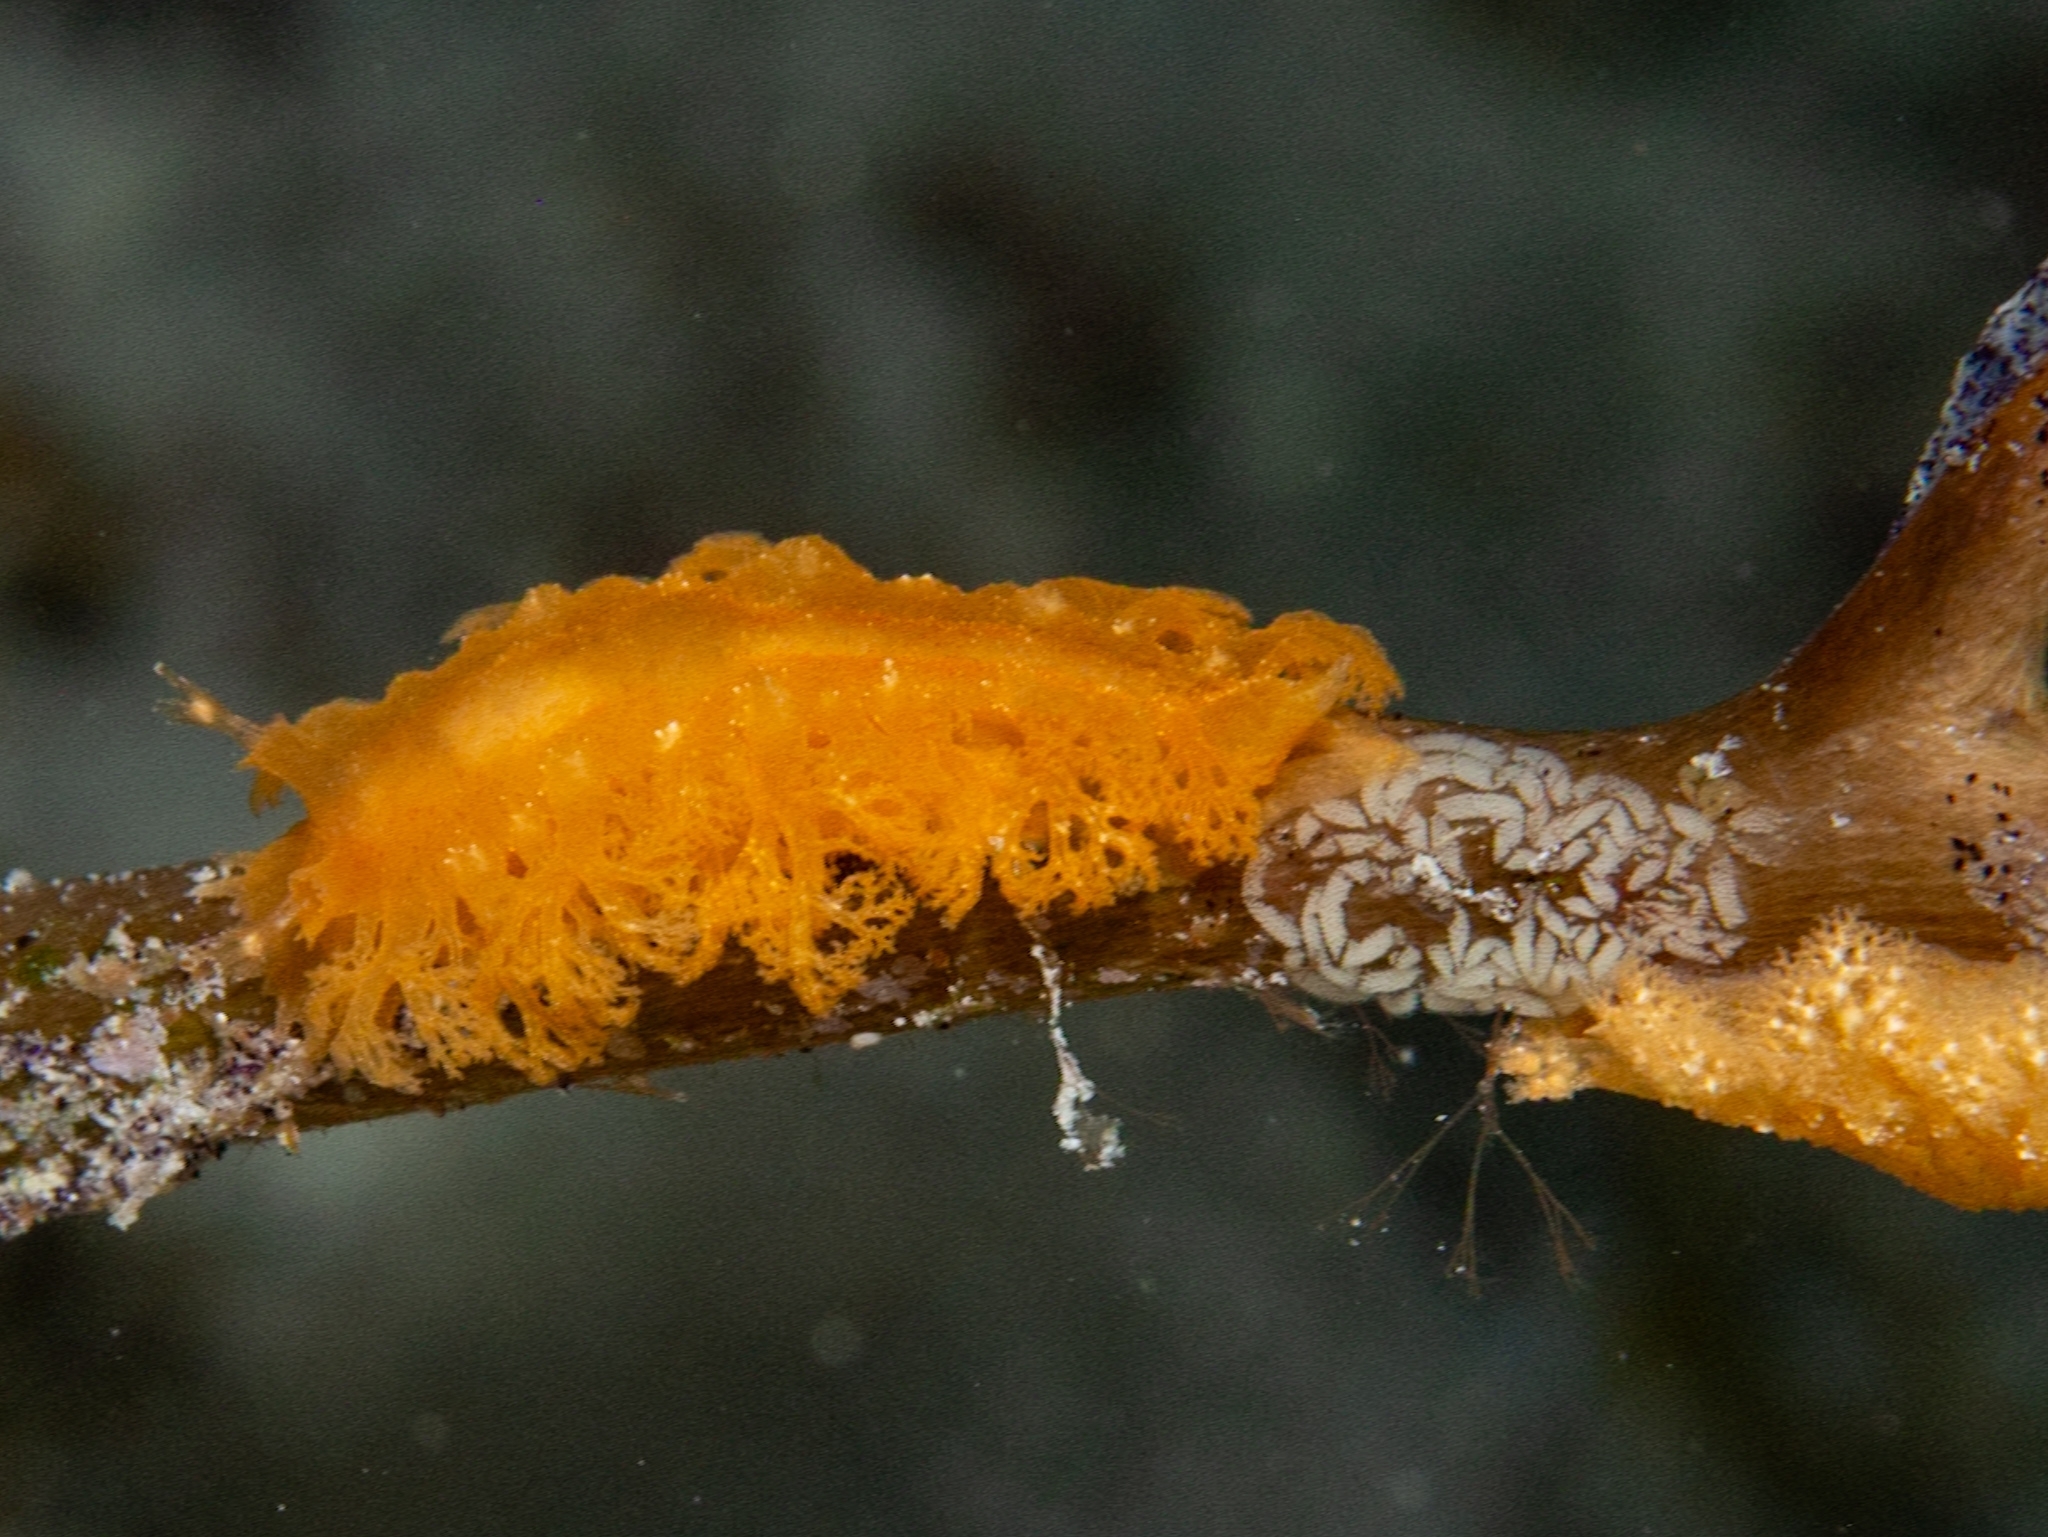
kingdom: Animalia
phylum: Mollusca
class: Gastropoda
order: Nudibranchia
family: Tritoniidae
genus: Tritoniopsis
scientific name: Tritoniopsis frydis
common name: Tufted tritoniopsis
